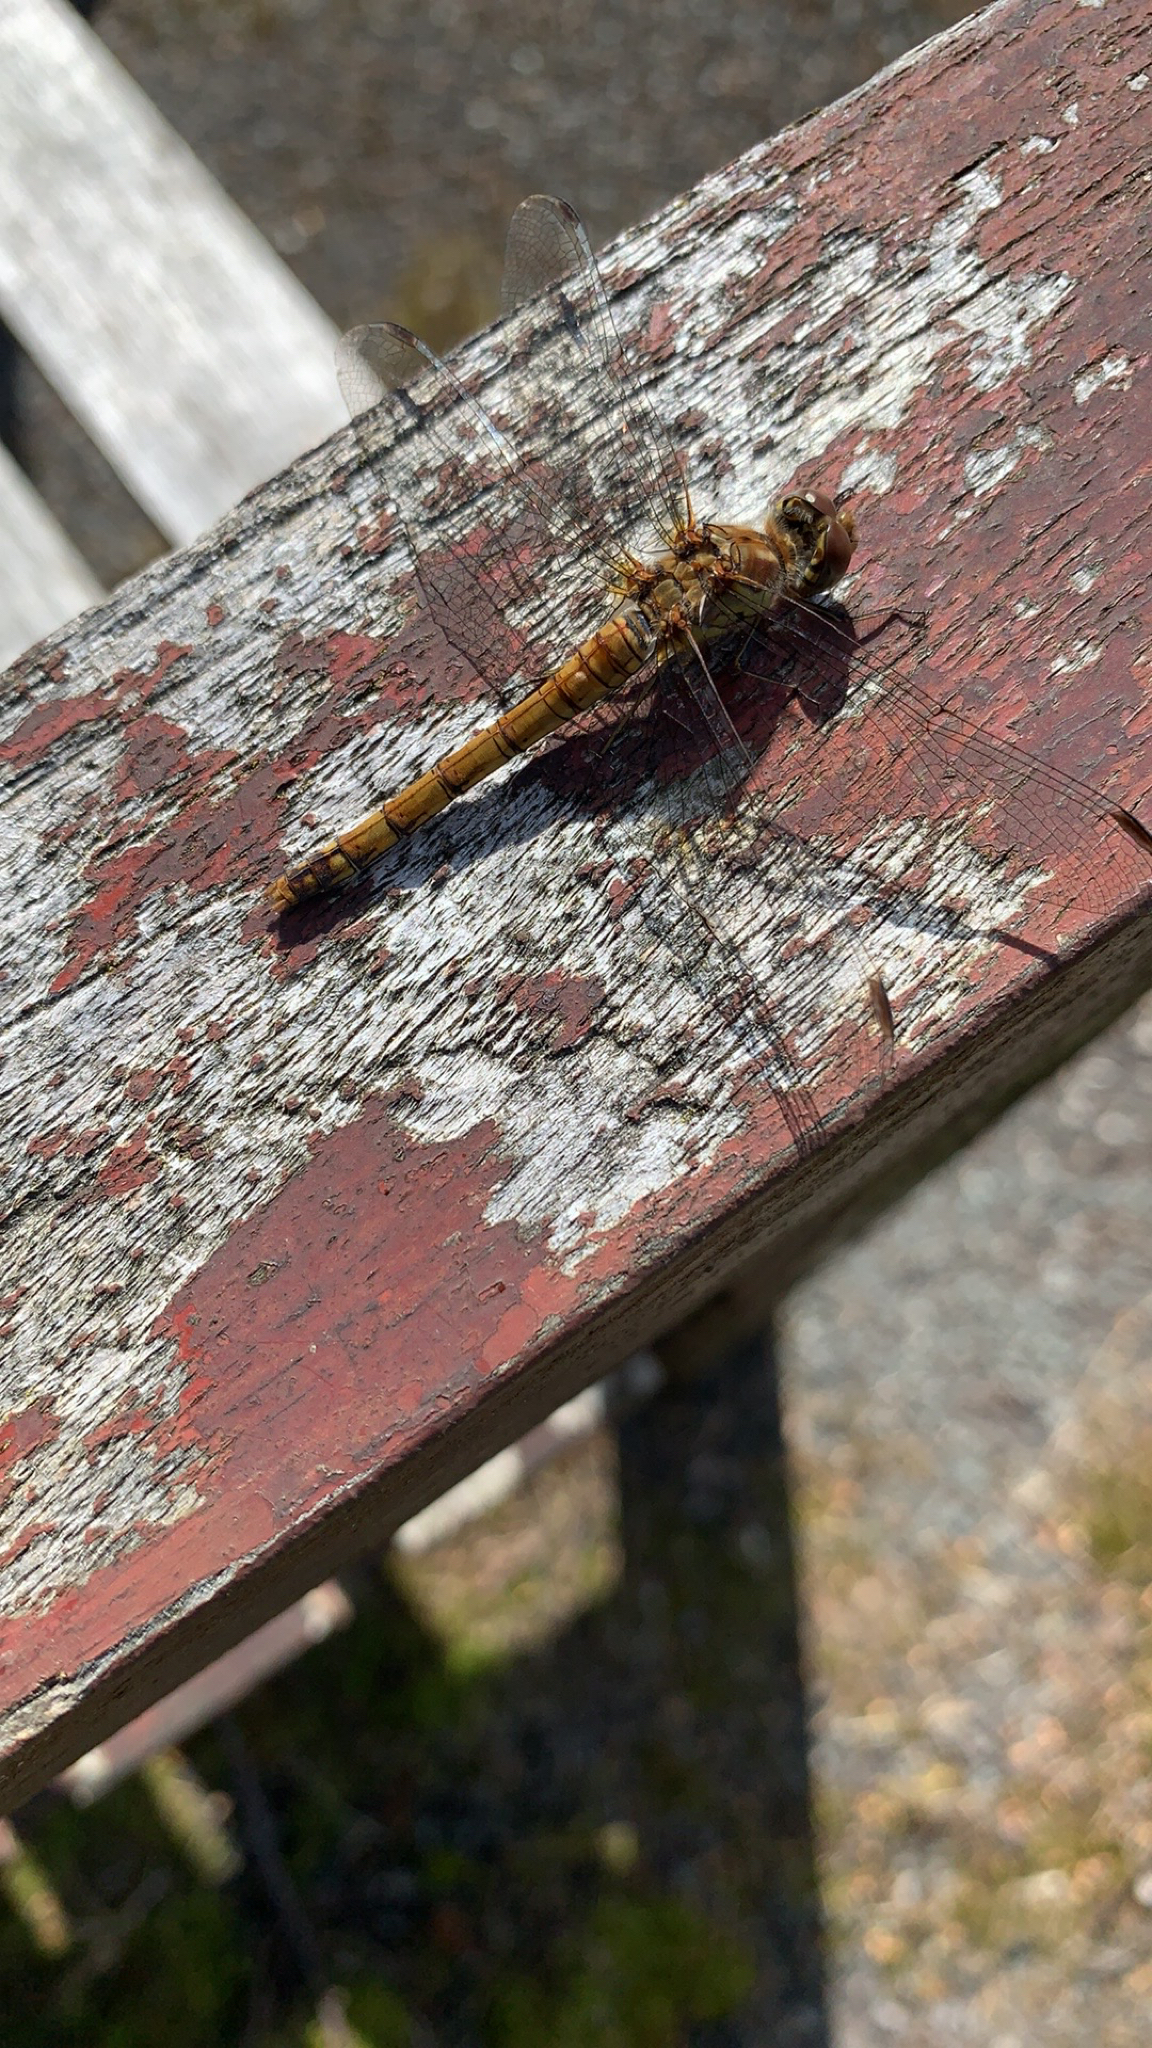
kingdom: Animalia
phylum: Arthropoda
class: Insecta
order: Odonata
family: Libellulidae
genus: Sympetrum
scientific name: Sympetrum striolatum
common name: Common darter
